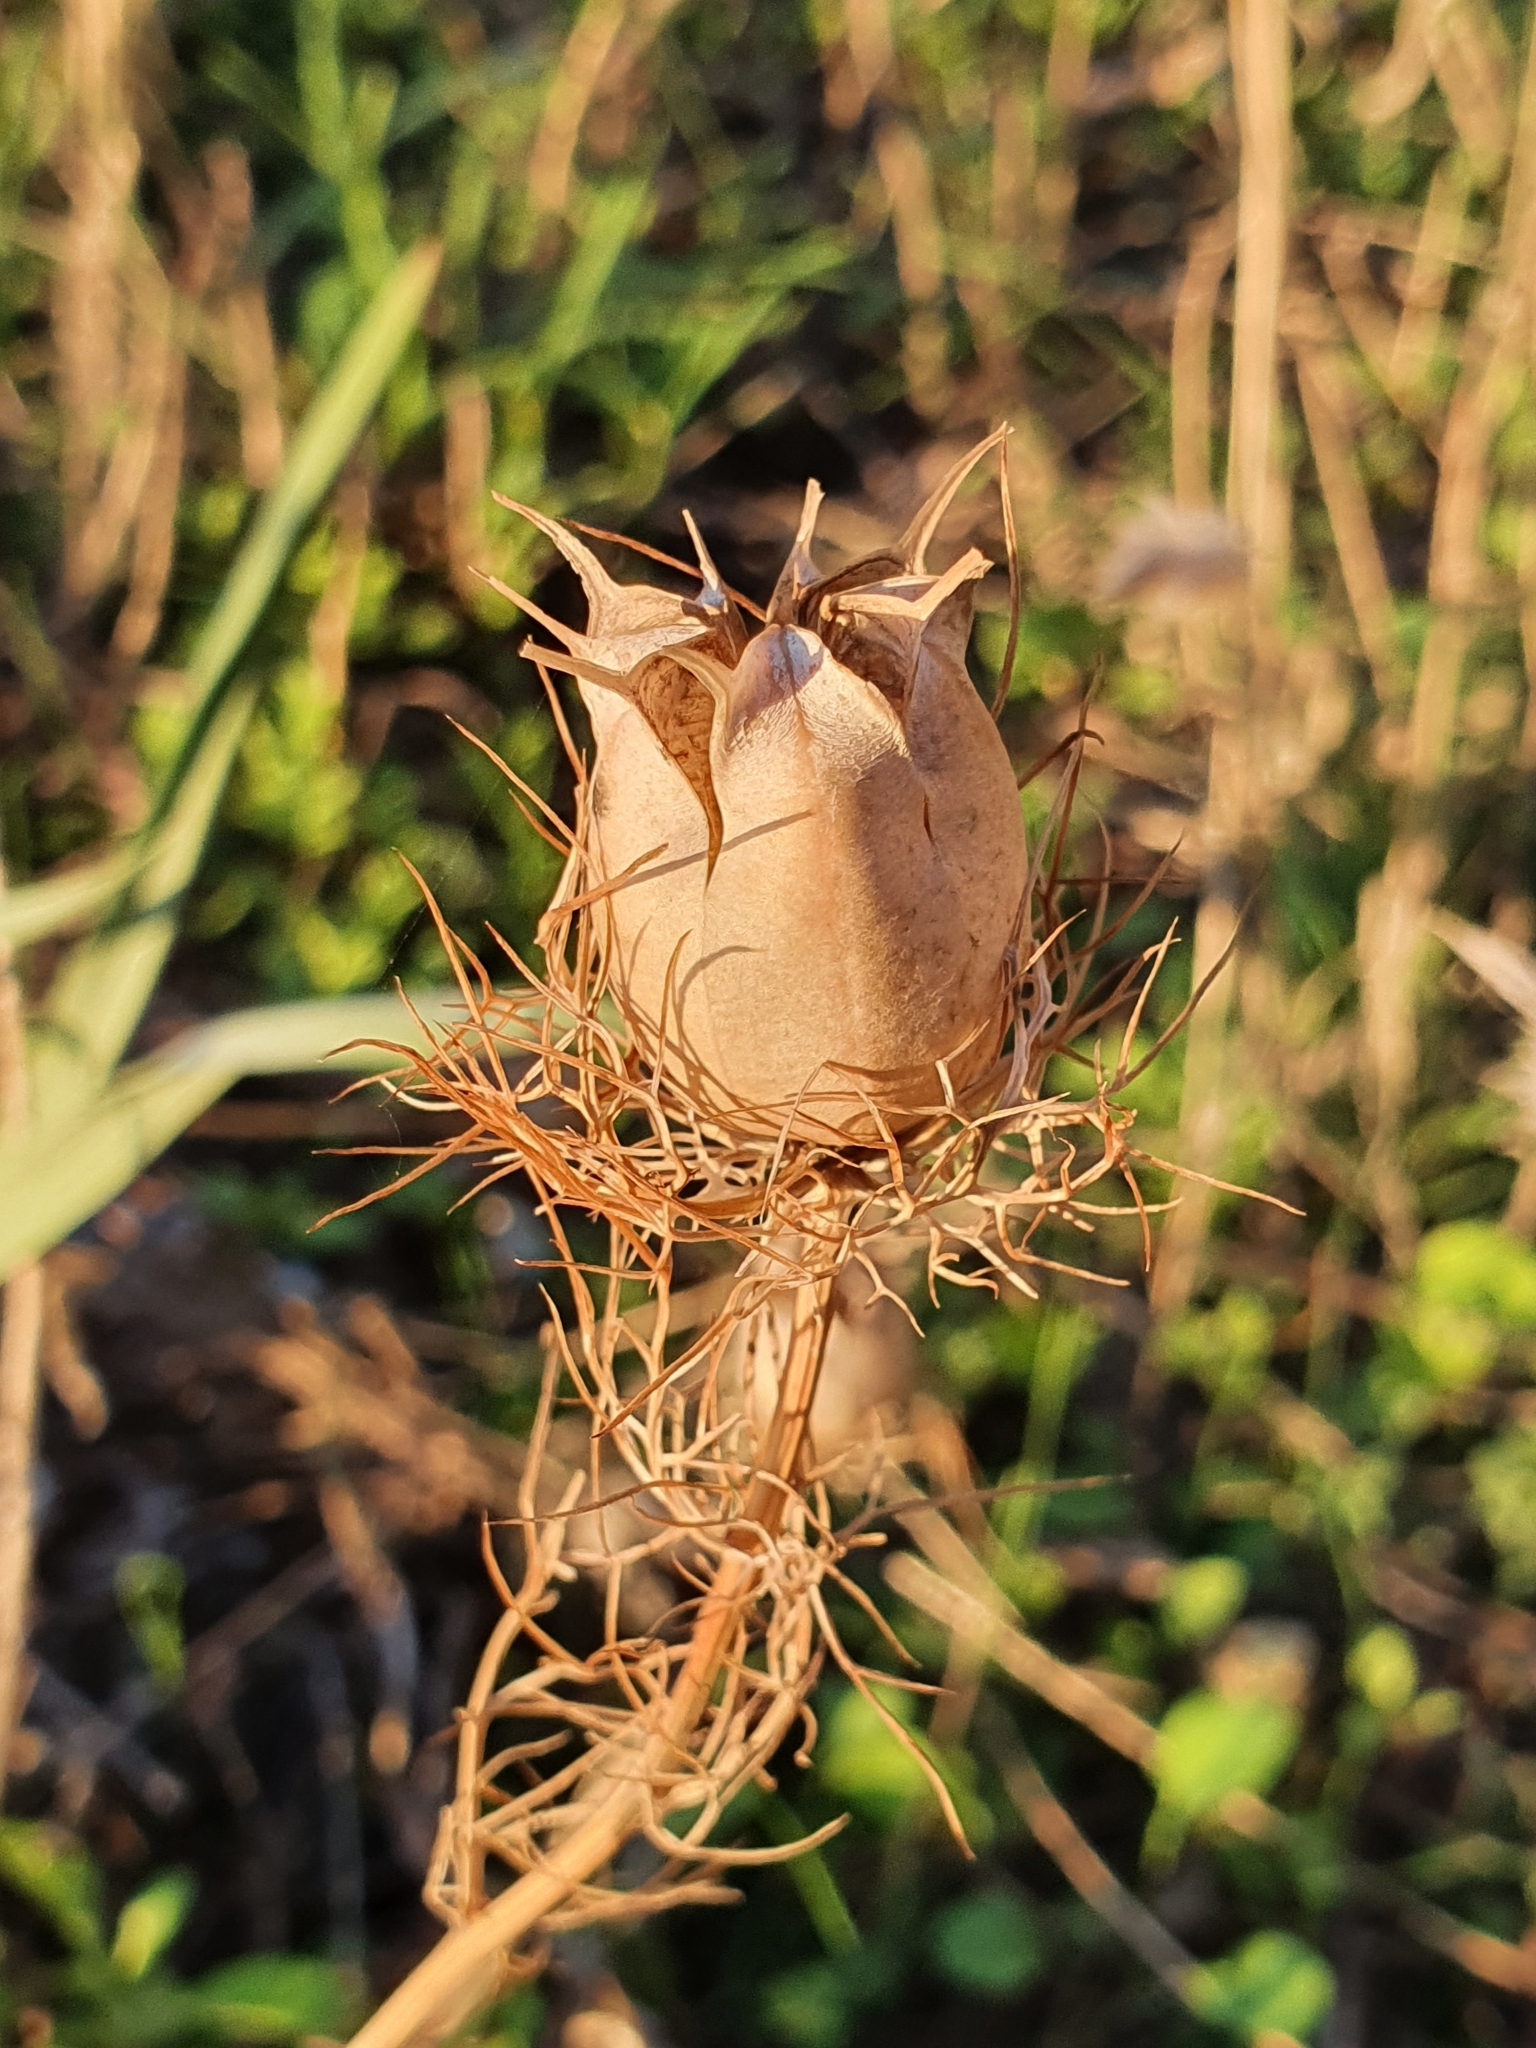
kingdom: Plantae
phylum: Tracheophyta
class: Magnoliopsida
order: Ranunculales
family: Ranunculaceae
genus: Nigella
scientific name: Nigella damascena
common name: Love-in-a-mist
